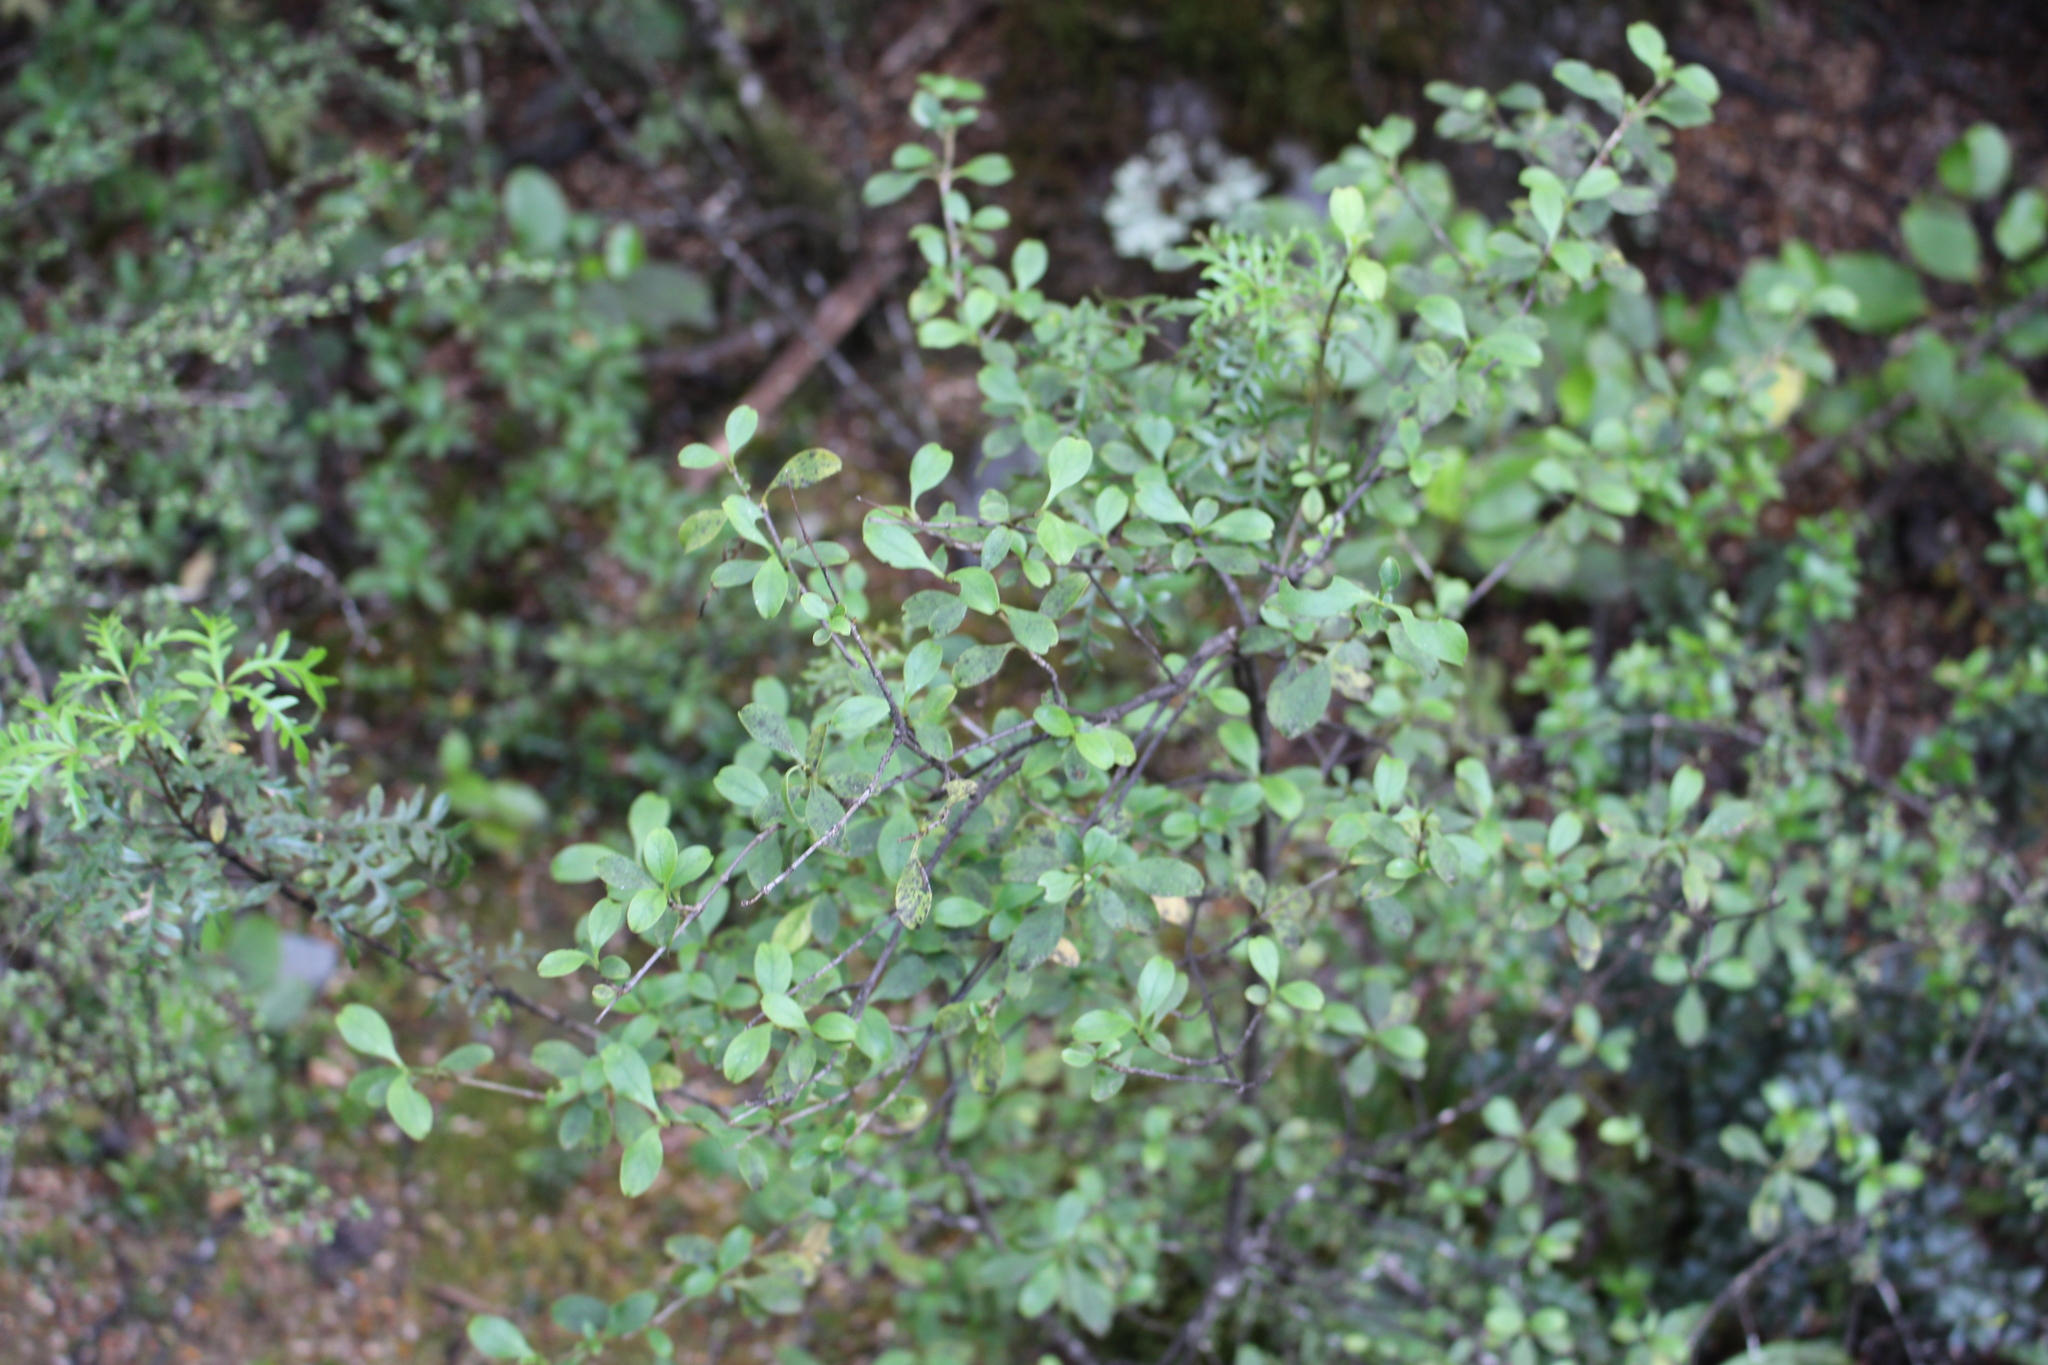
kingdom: Plantae
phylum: Tracheophyta
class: Magnoliopsida
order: Gentianales
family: Rubiaceae
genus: Coprosma
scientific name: Coprosma foetidissima
